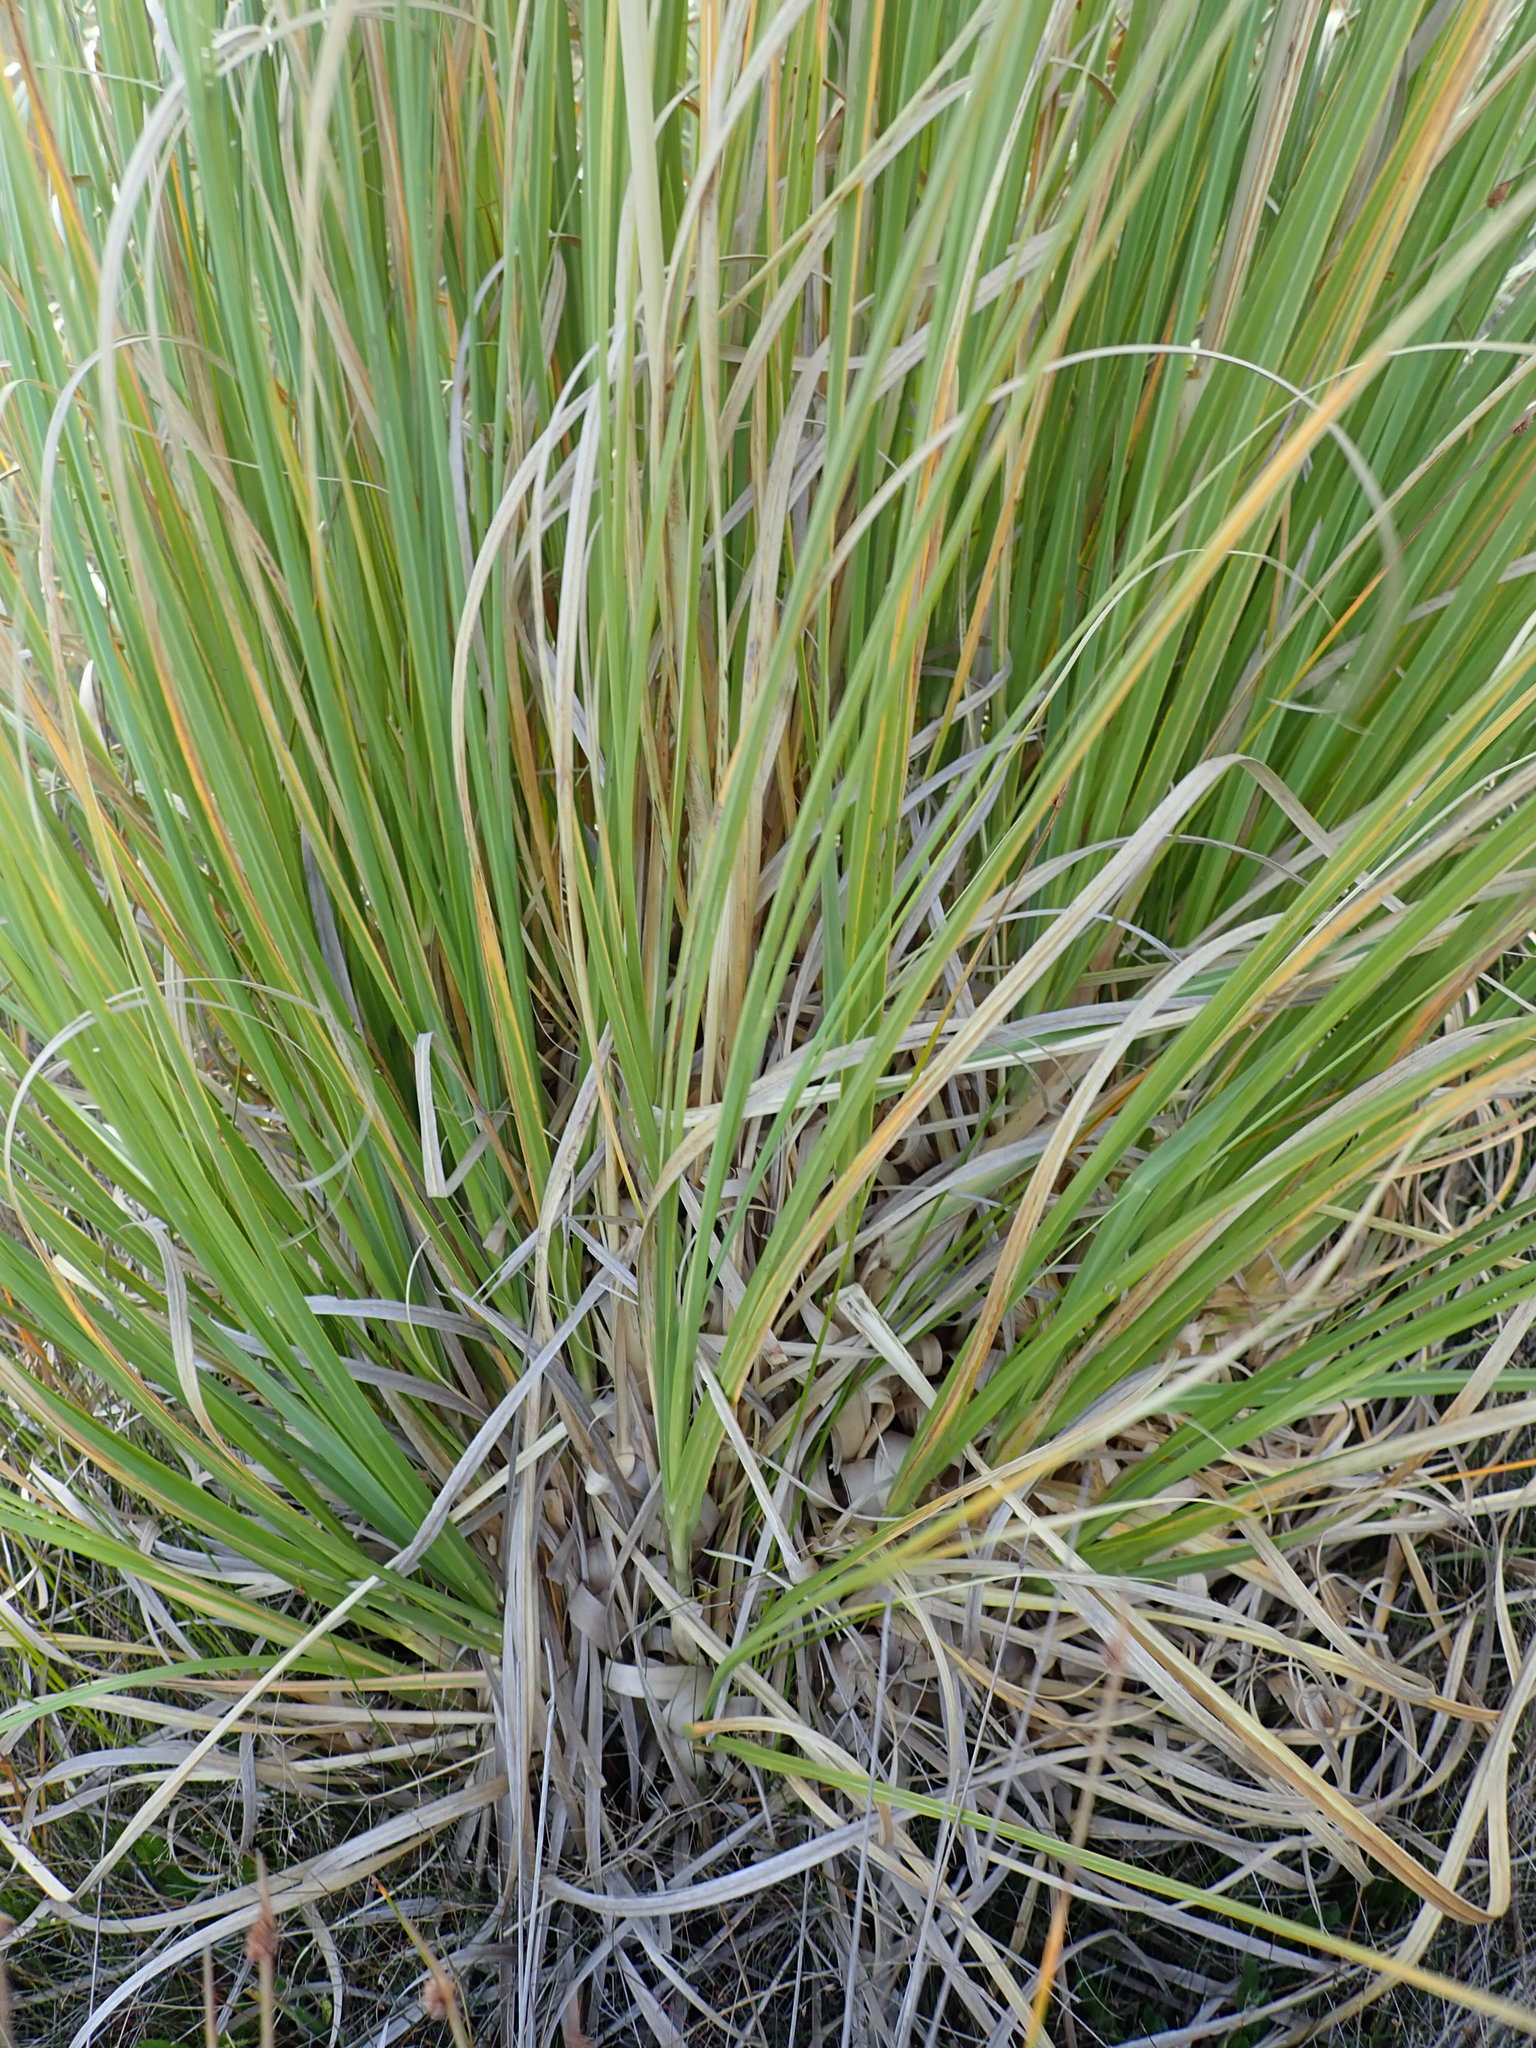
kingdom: Plantae
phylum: Tracheophyta
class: Liliopsida
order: Poales
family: Poaceae
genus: Cortaderia
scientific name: Cortaderia selloana
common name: Uruguayan pampas grass
